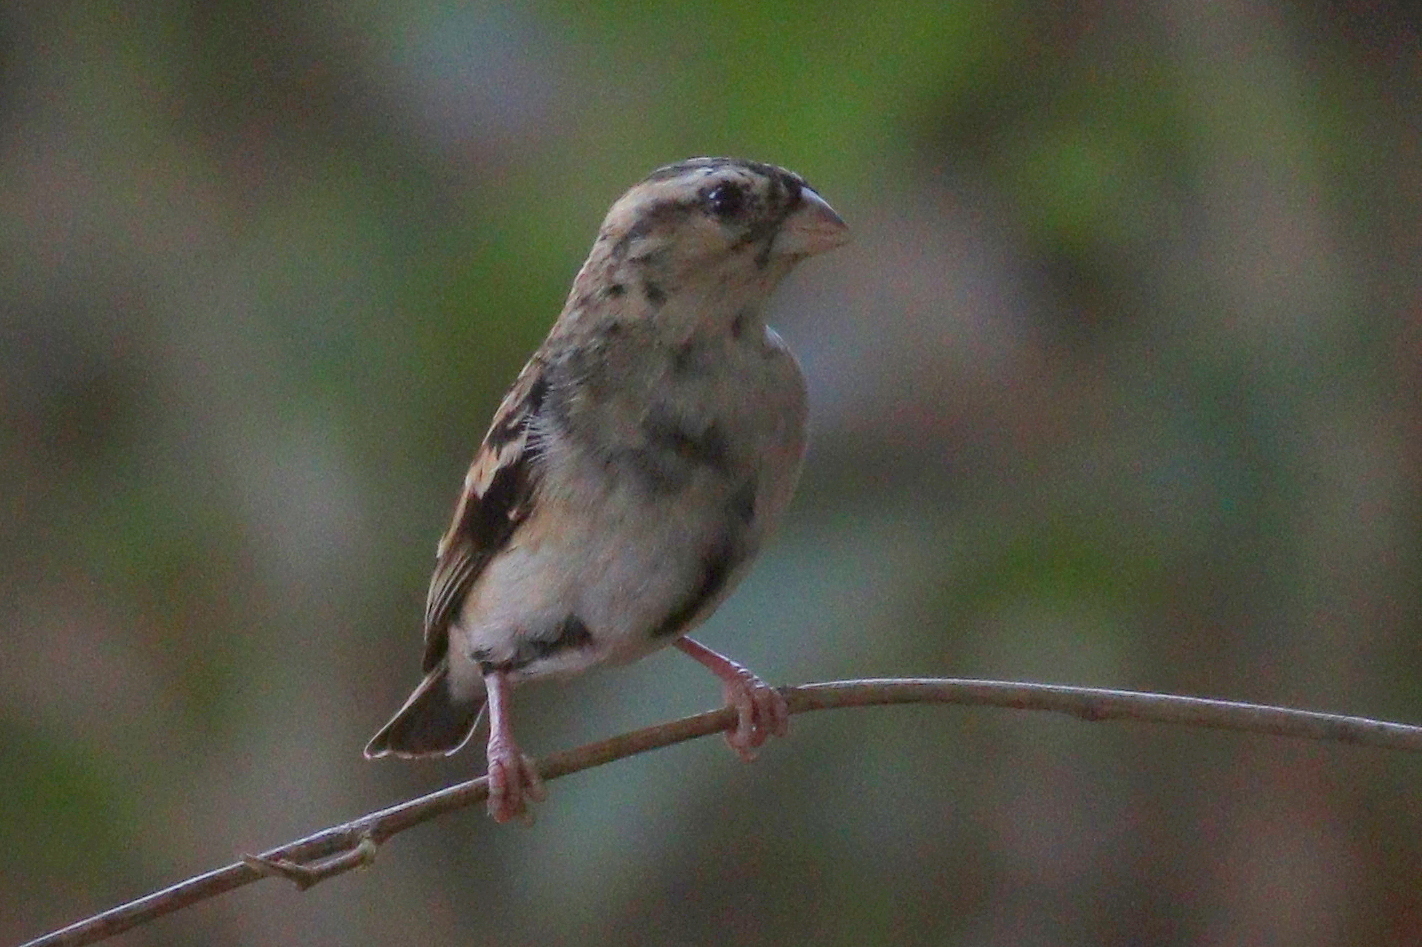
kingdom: Animalia
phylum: Chordata
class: Aves
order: Passeriformes
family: Viduidae
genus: Vidua
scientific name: Vidua chalybeata
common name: Village indigobird
